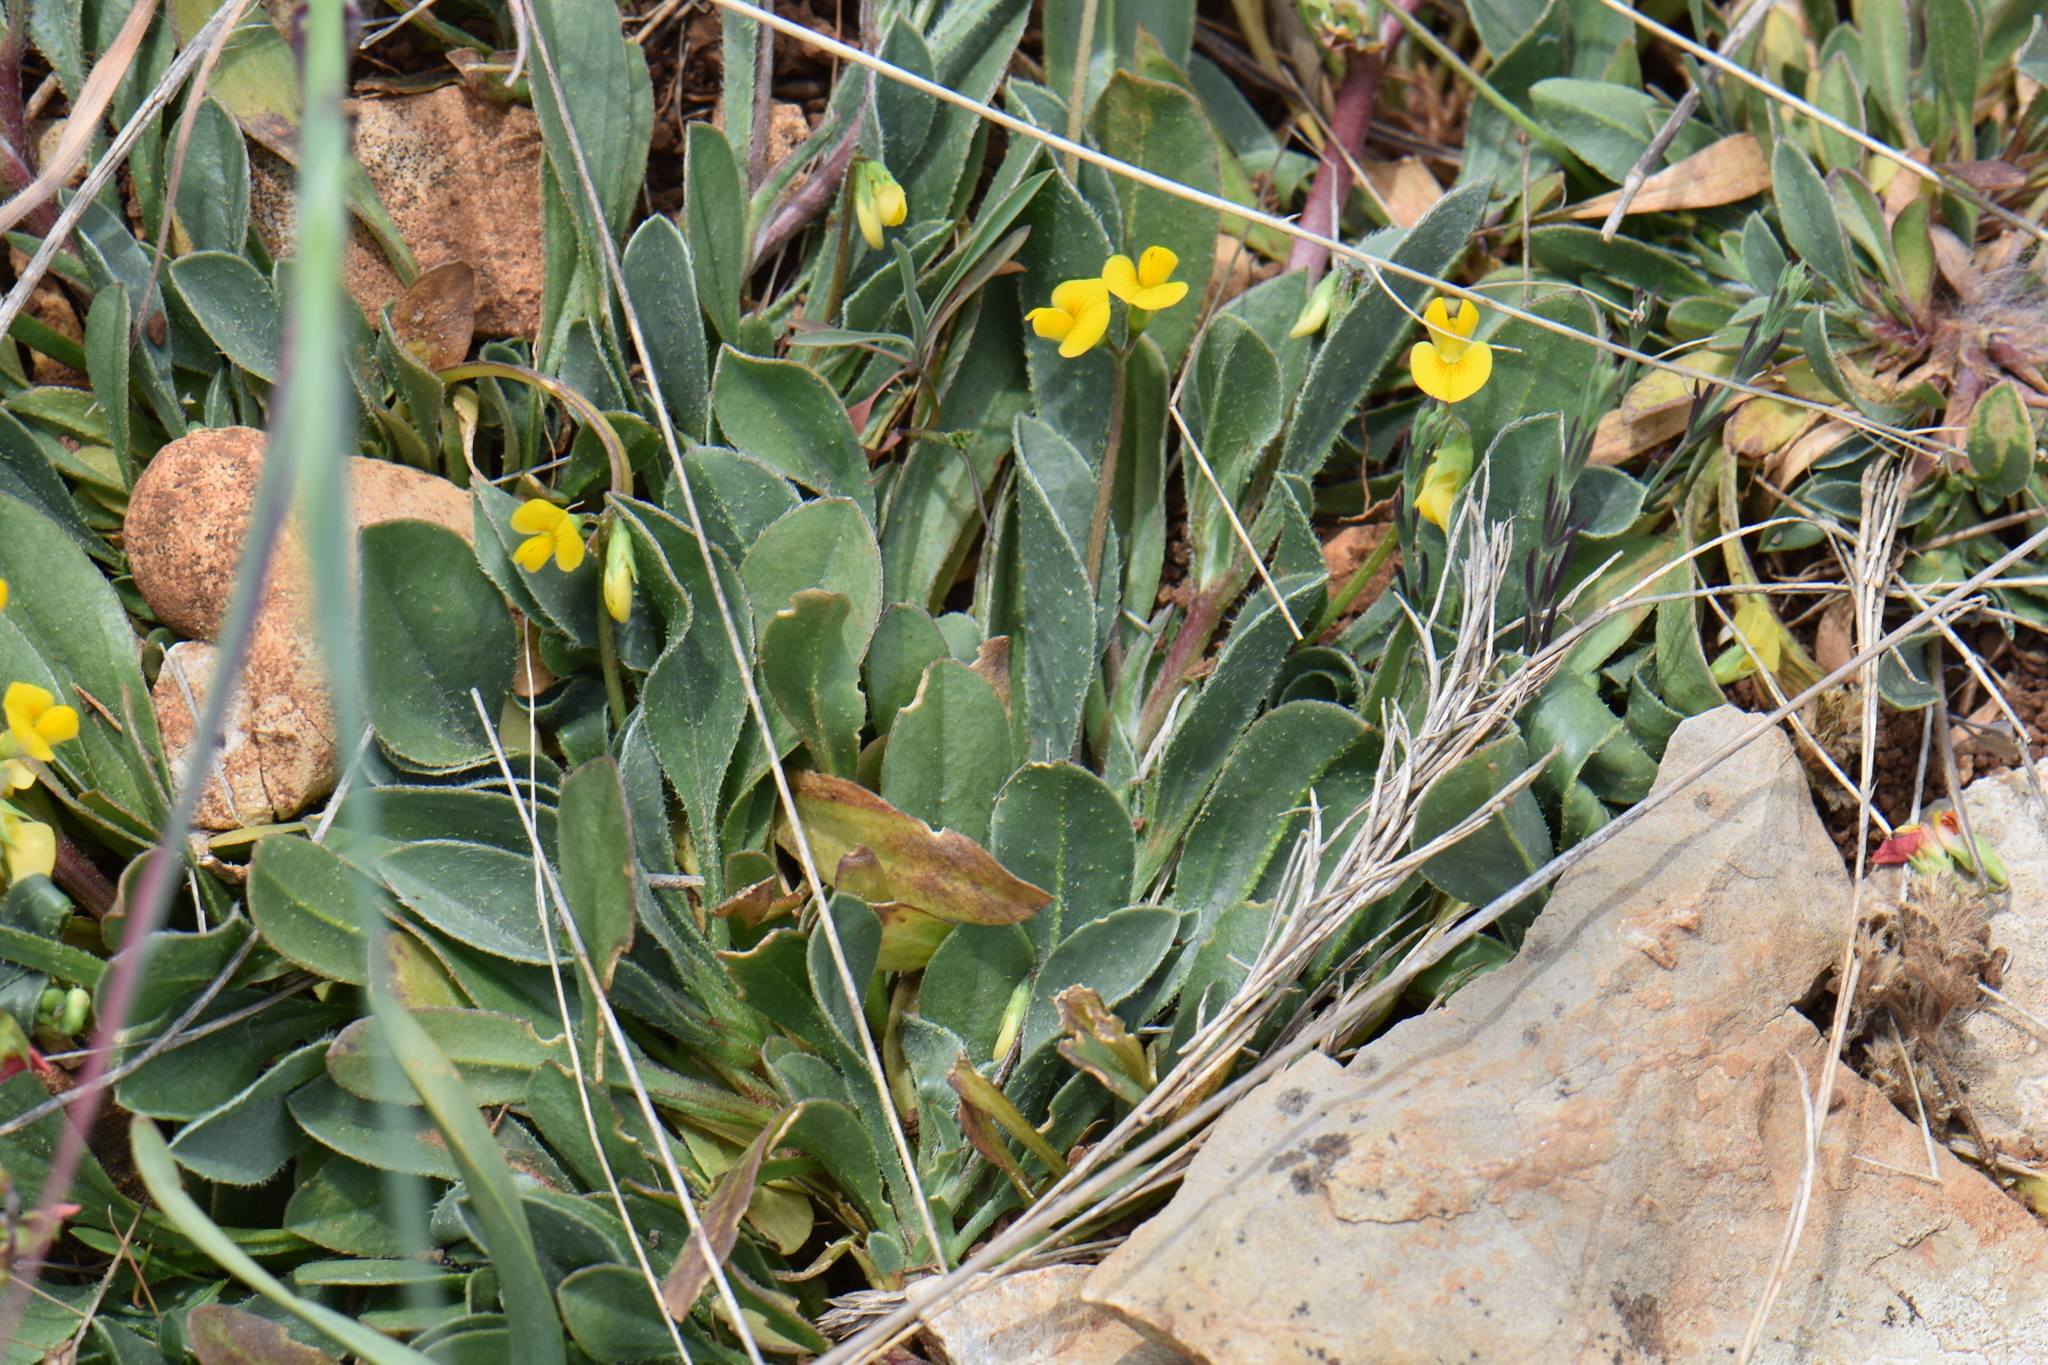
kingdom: Plantae
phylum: Tracheophyta
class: Magnoliopsida
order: Fabales
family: Fabaceae
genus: Scorpiurus
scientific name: Scorpiurus muricatus
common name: Caterpillar-plant
